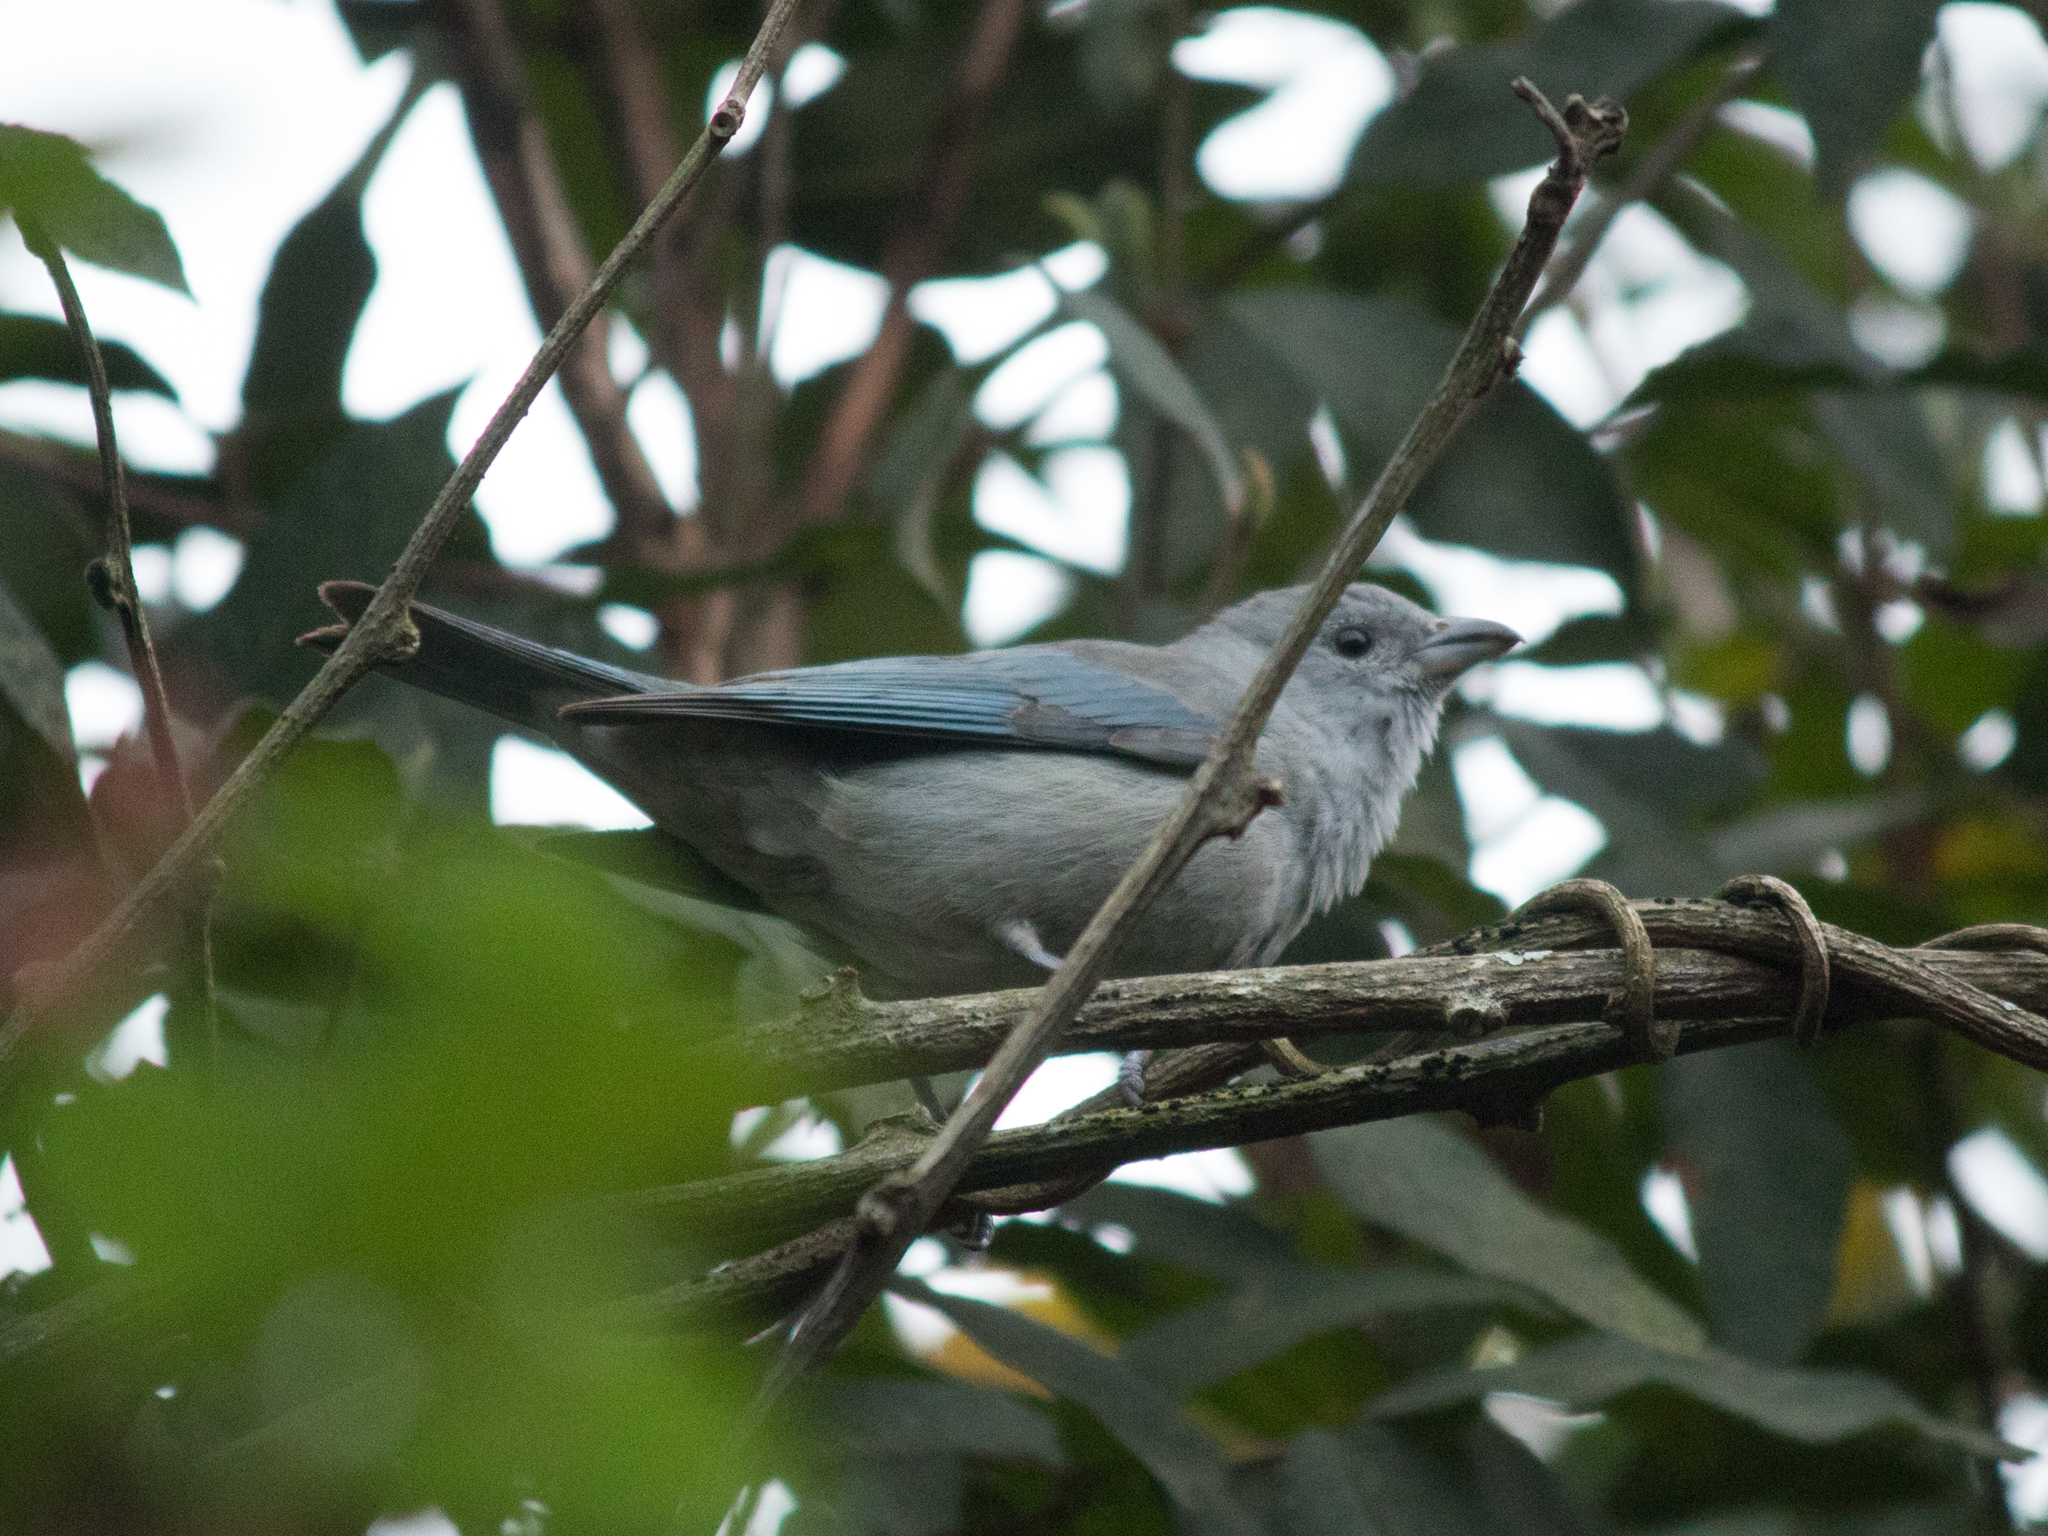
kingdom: Animalia
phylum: Chordata
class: Aves
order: Passeriformes
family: Thraupidae
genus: Thraupis
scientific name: Thraupis sayaca
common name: Sayaca tanager
